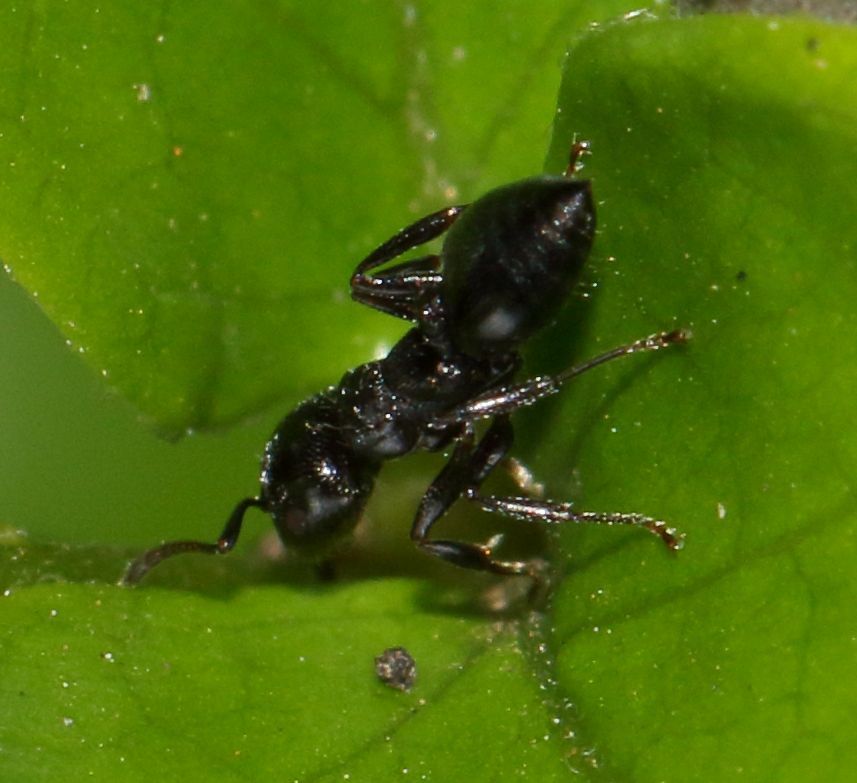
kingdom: Animalia
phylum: Arthropoda
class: Insecta
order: Hymenoptera
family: Formicidae
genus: Crematogaster
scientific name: Crematogaster monticola
